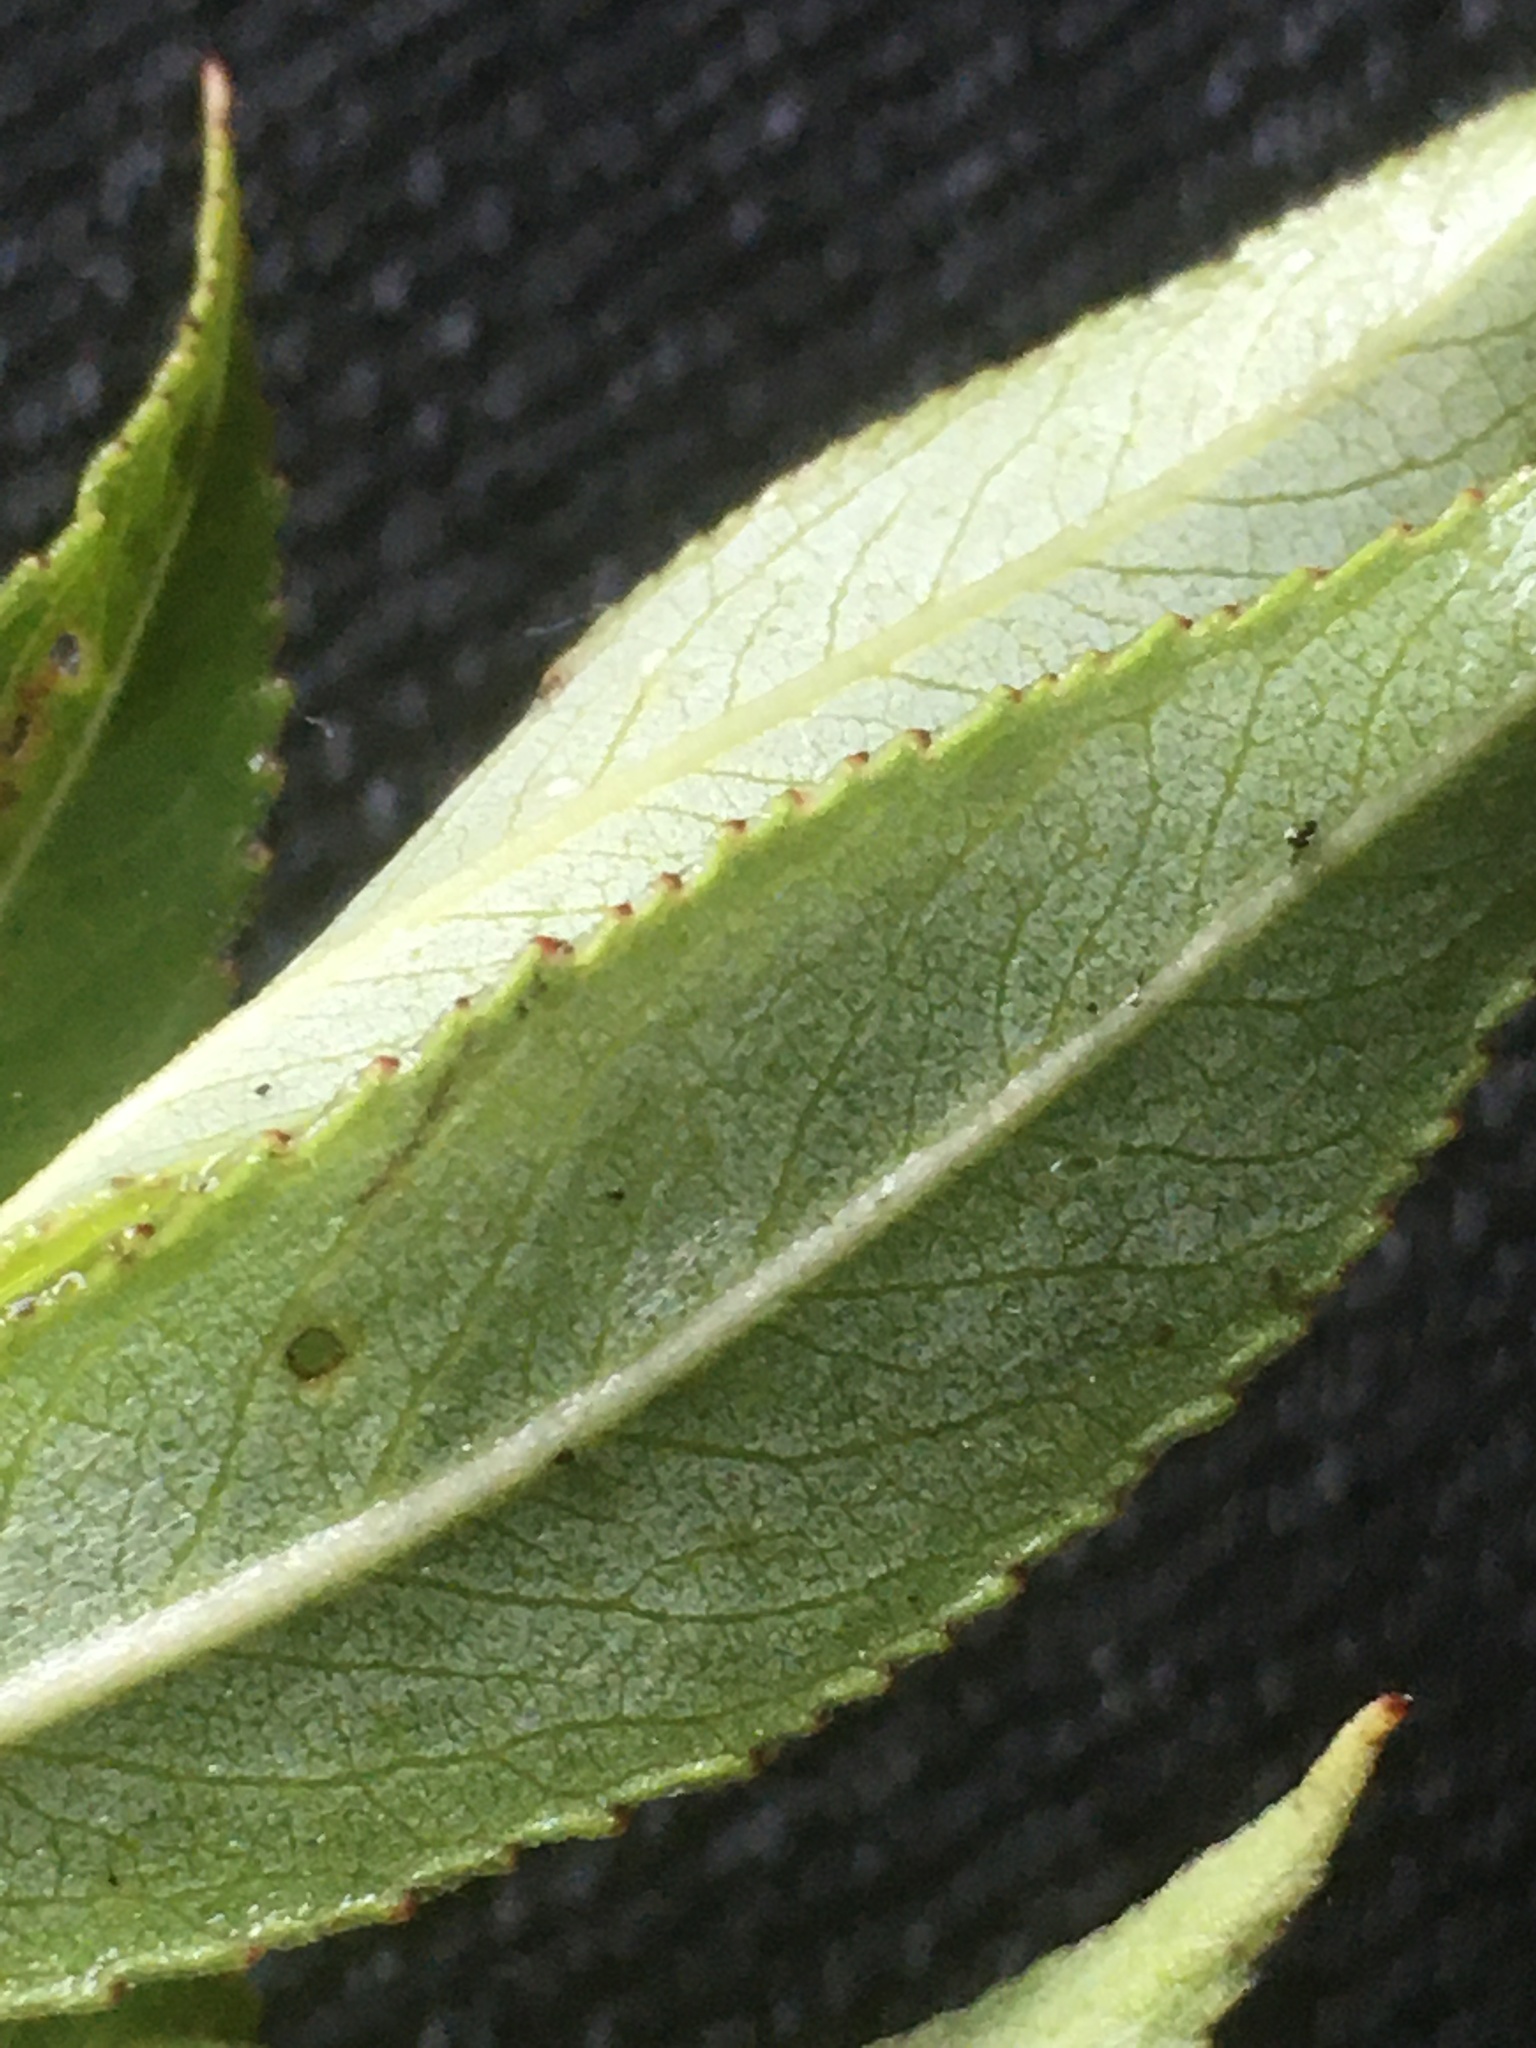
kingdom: Plantae
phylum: Tracheophyta
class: Magnoliopsida
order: Malpighiales
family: Salicaceae
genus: Salix
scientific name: Salix nigra
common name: Black willow
